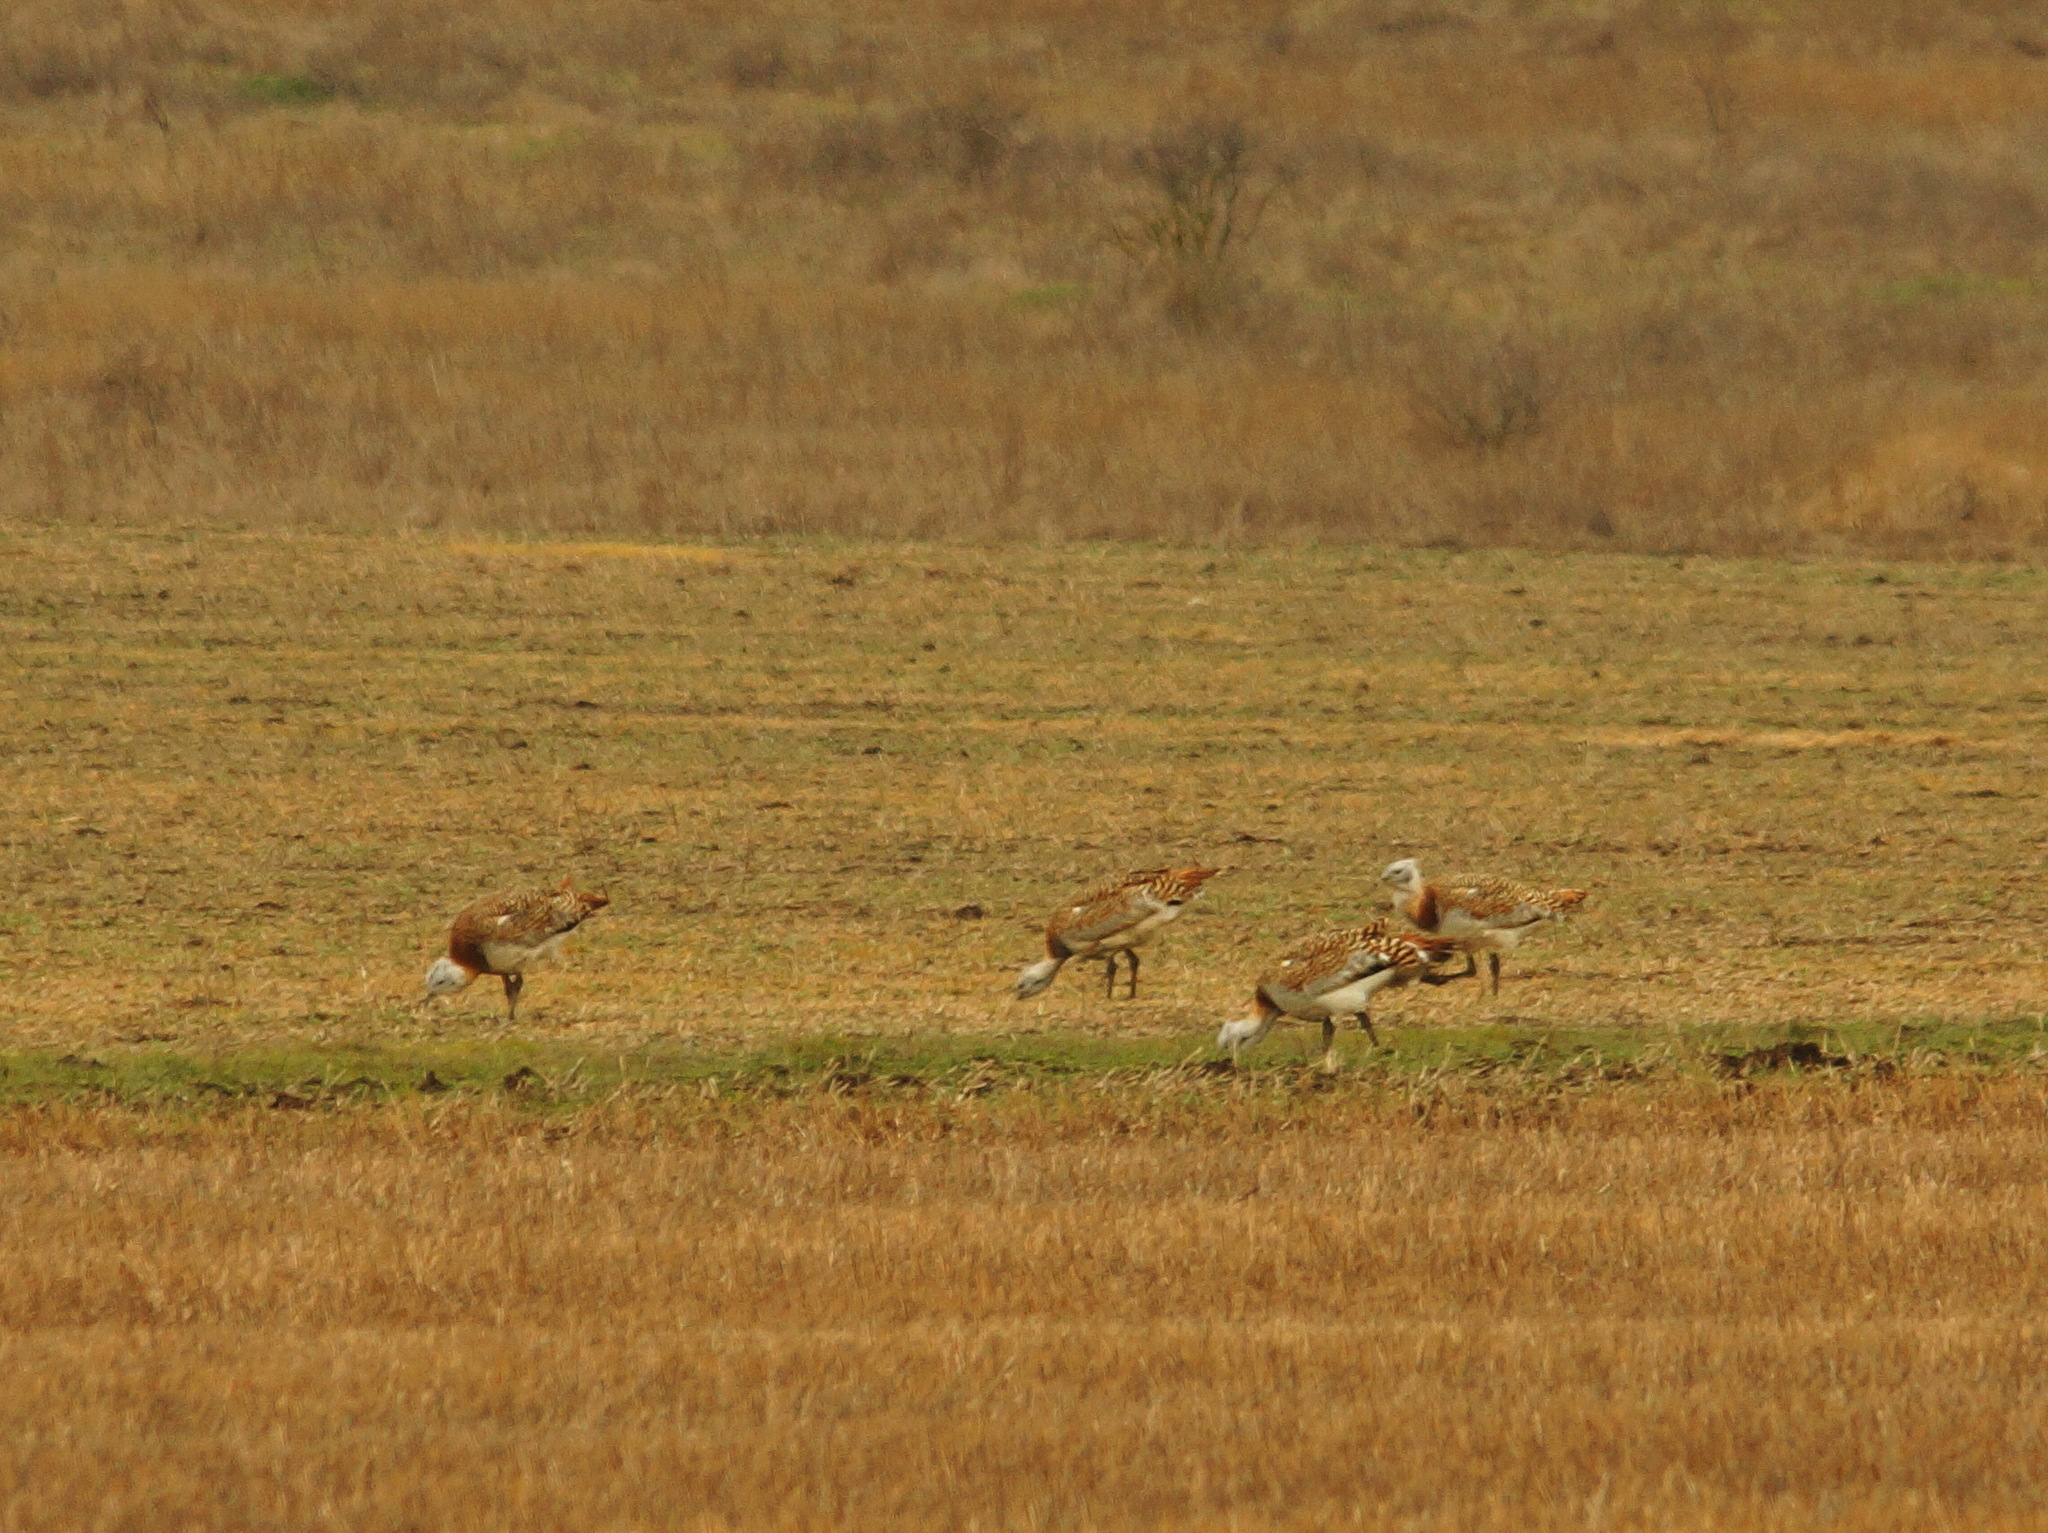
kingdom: Animalia
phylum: Chordata
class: Aves
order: Otidiformes
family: Otididae
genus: Otis
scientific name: Otis tarda
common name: Great bustard
